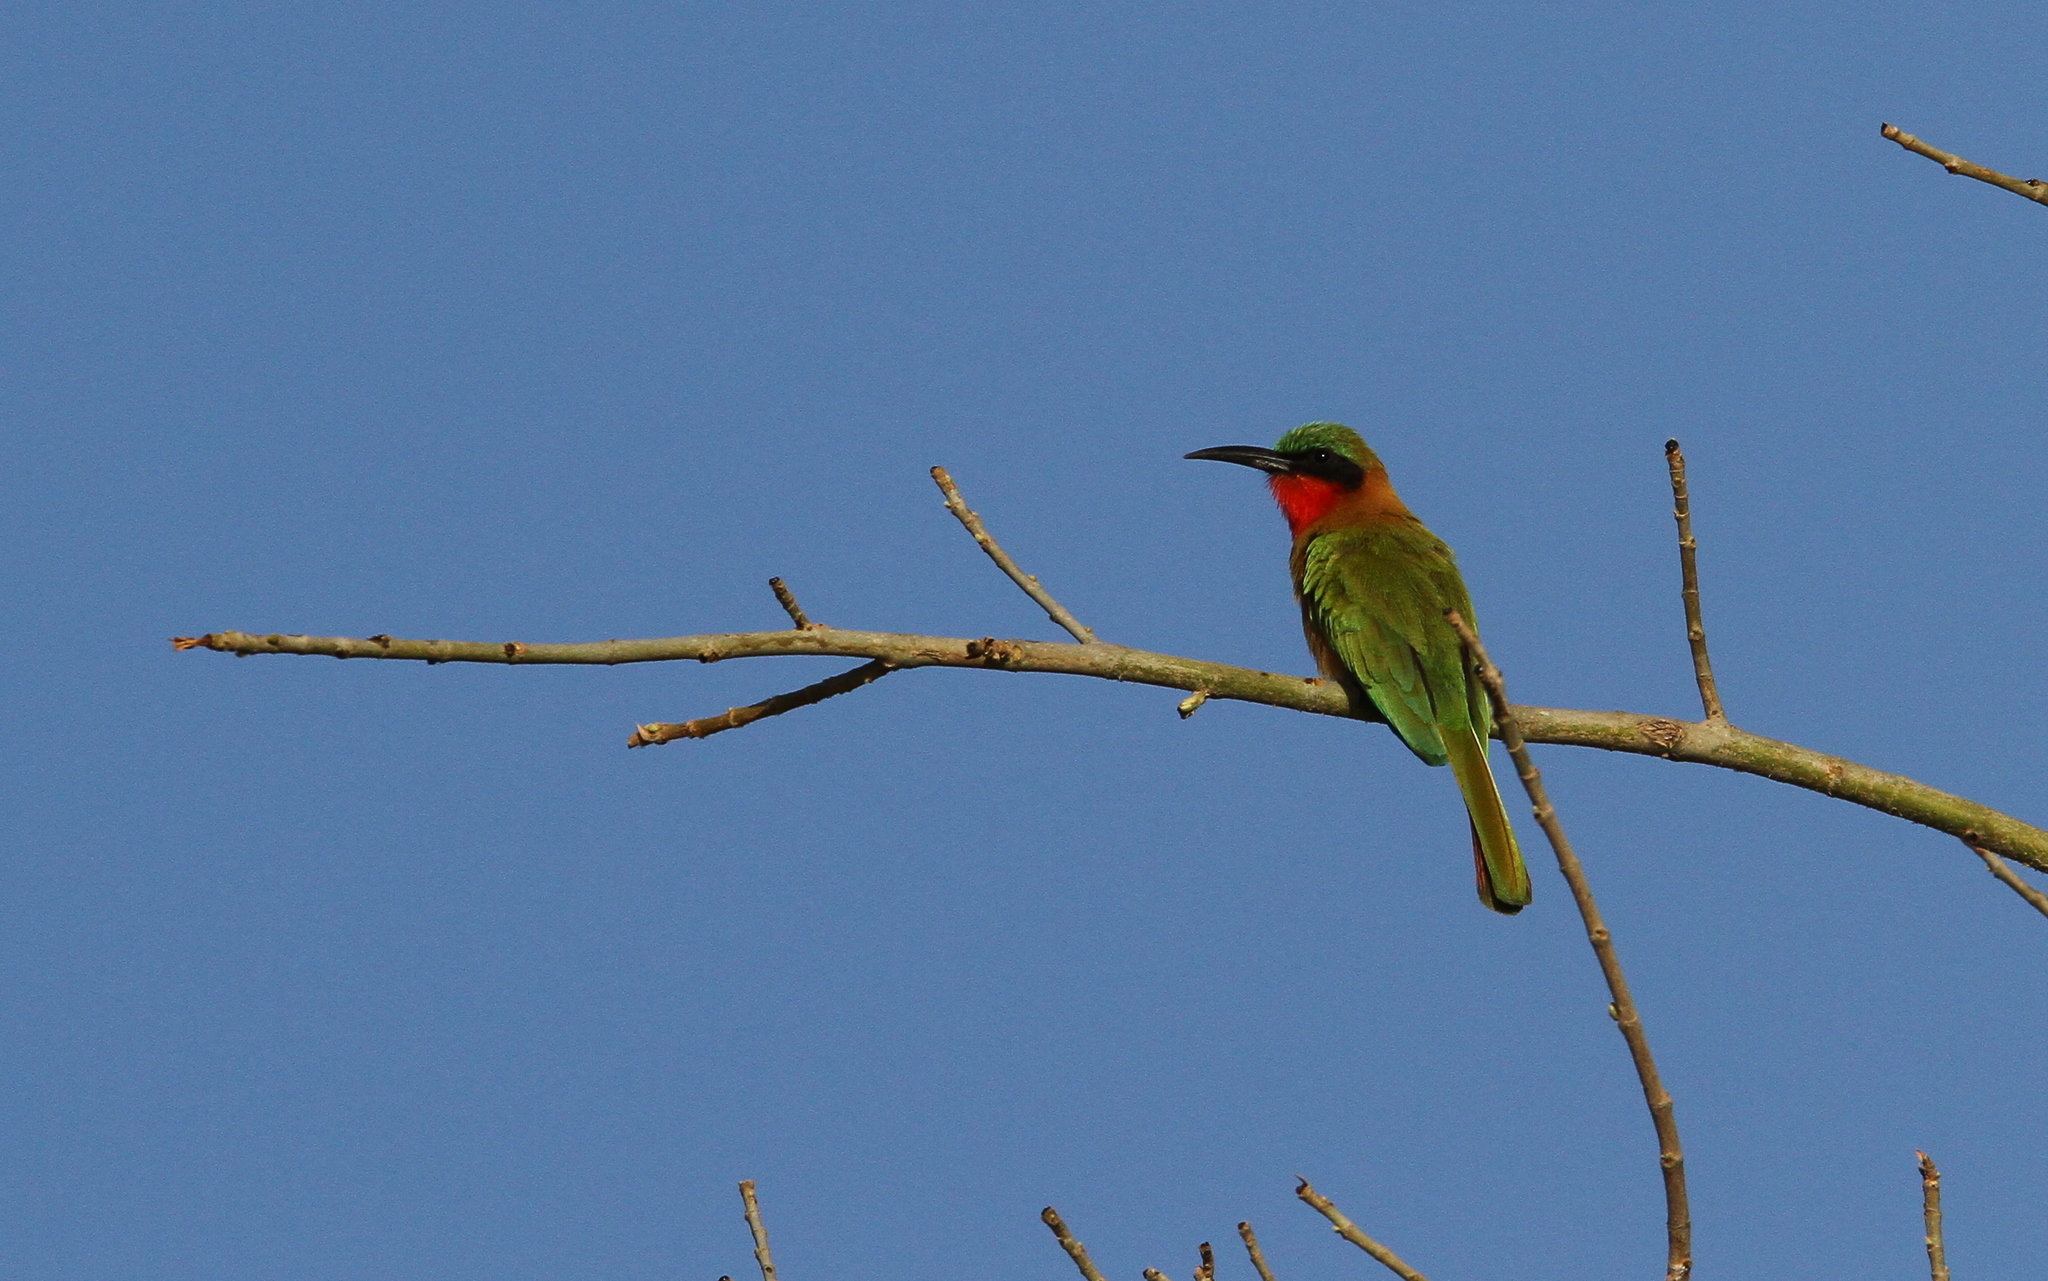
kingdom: Animalia
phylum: Chordata
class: Aves
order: Coraciiformes
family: Meropidae
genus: Merops
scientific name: Merops bulocki
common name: Red-throated bee-eater
